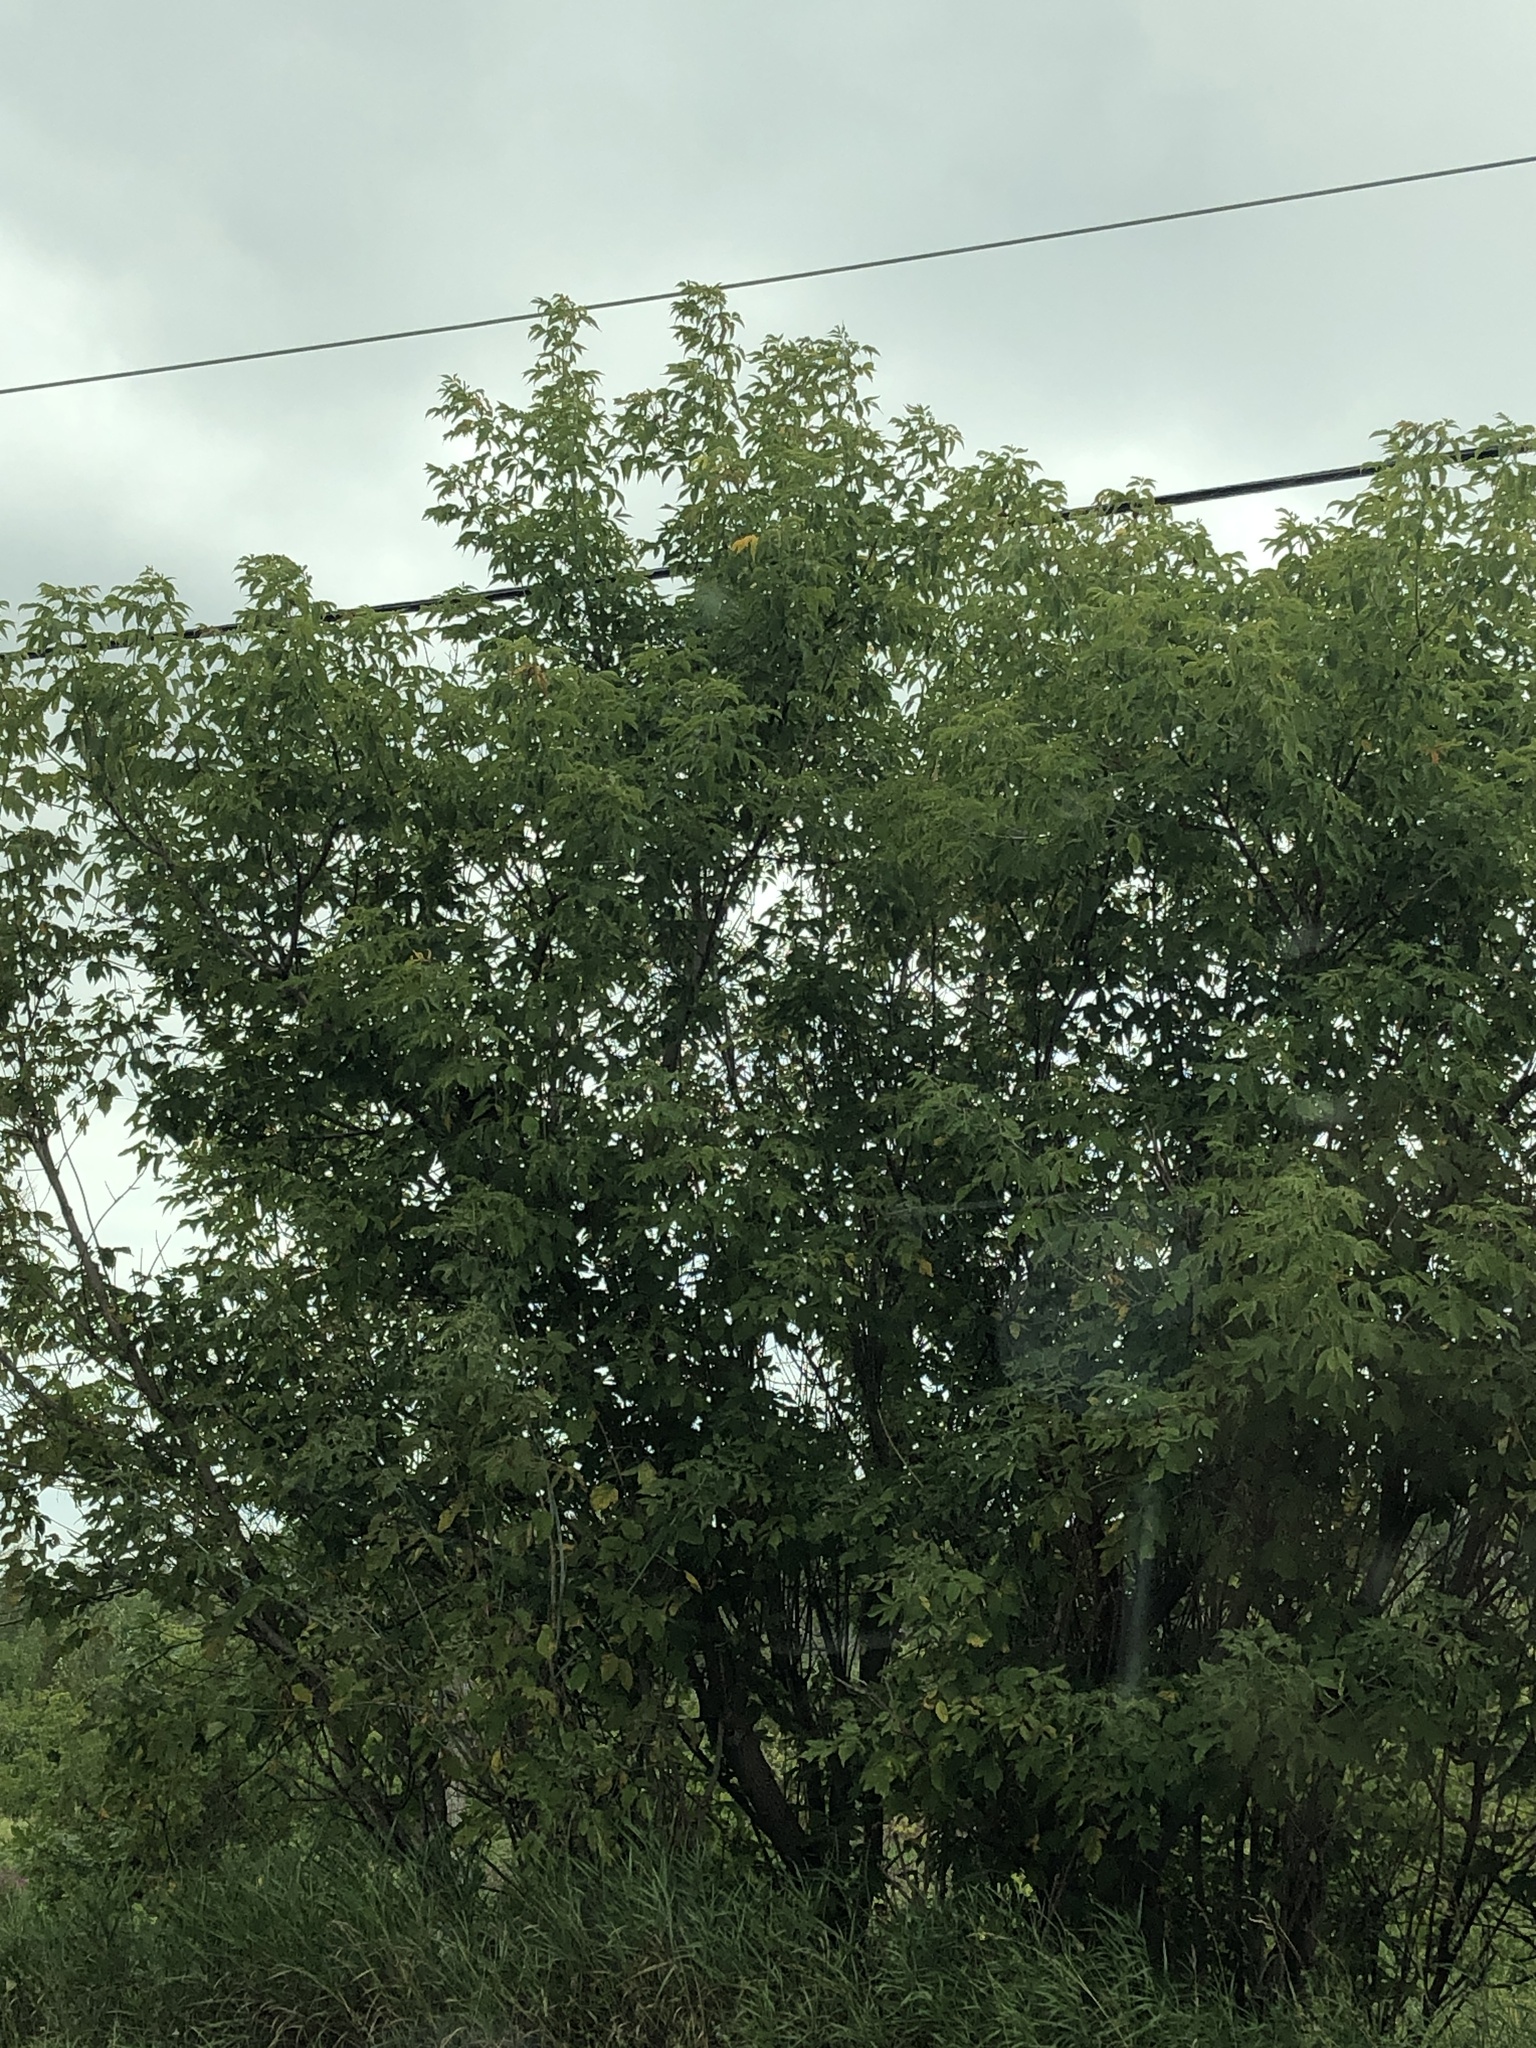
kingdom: Plantae
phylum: Tracheophyta
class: Magnoliopsida
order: Sapindales
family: Sapindaceae
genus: Acer
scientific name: Acer negundo
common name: Ashleaf maple
